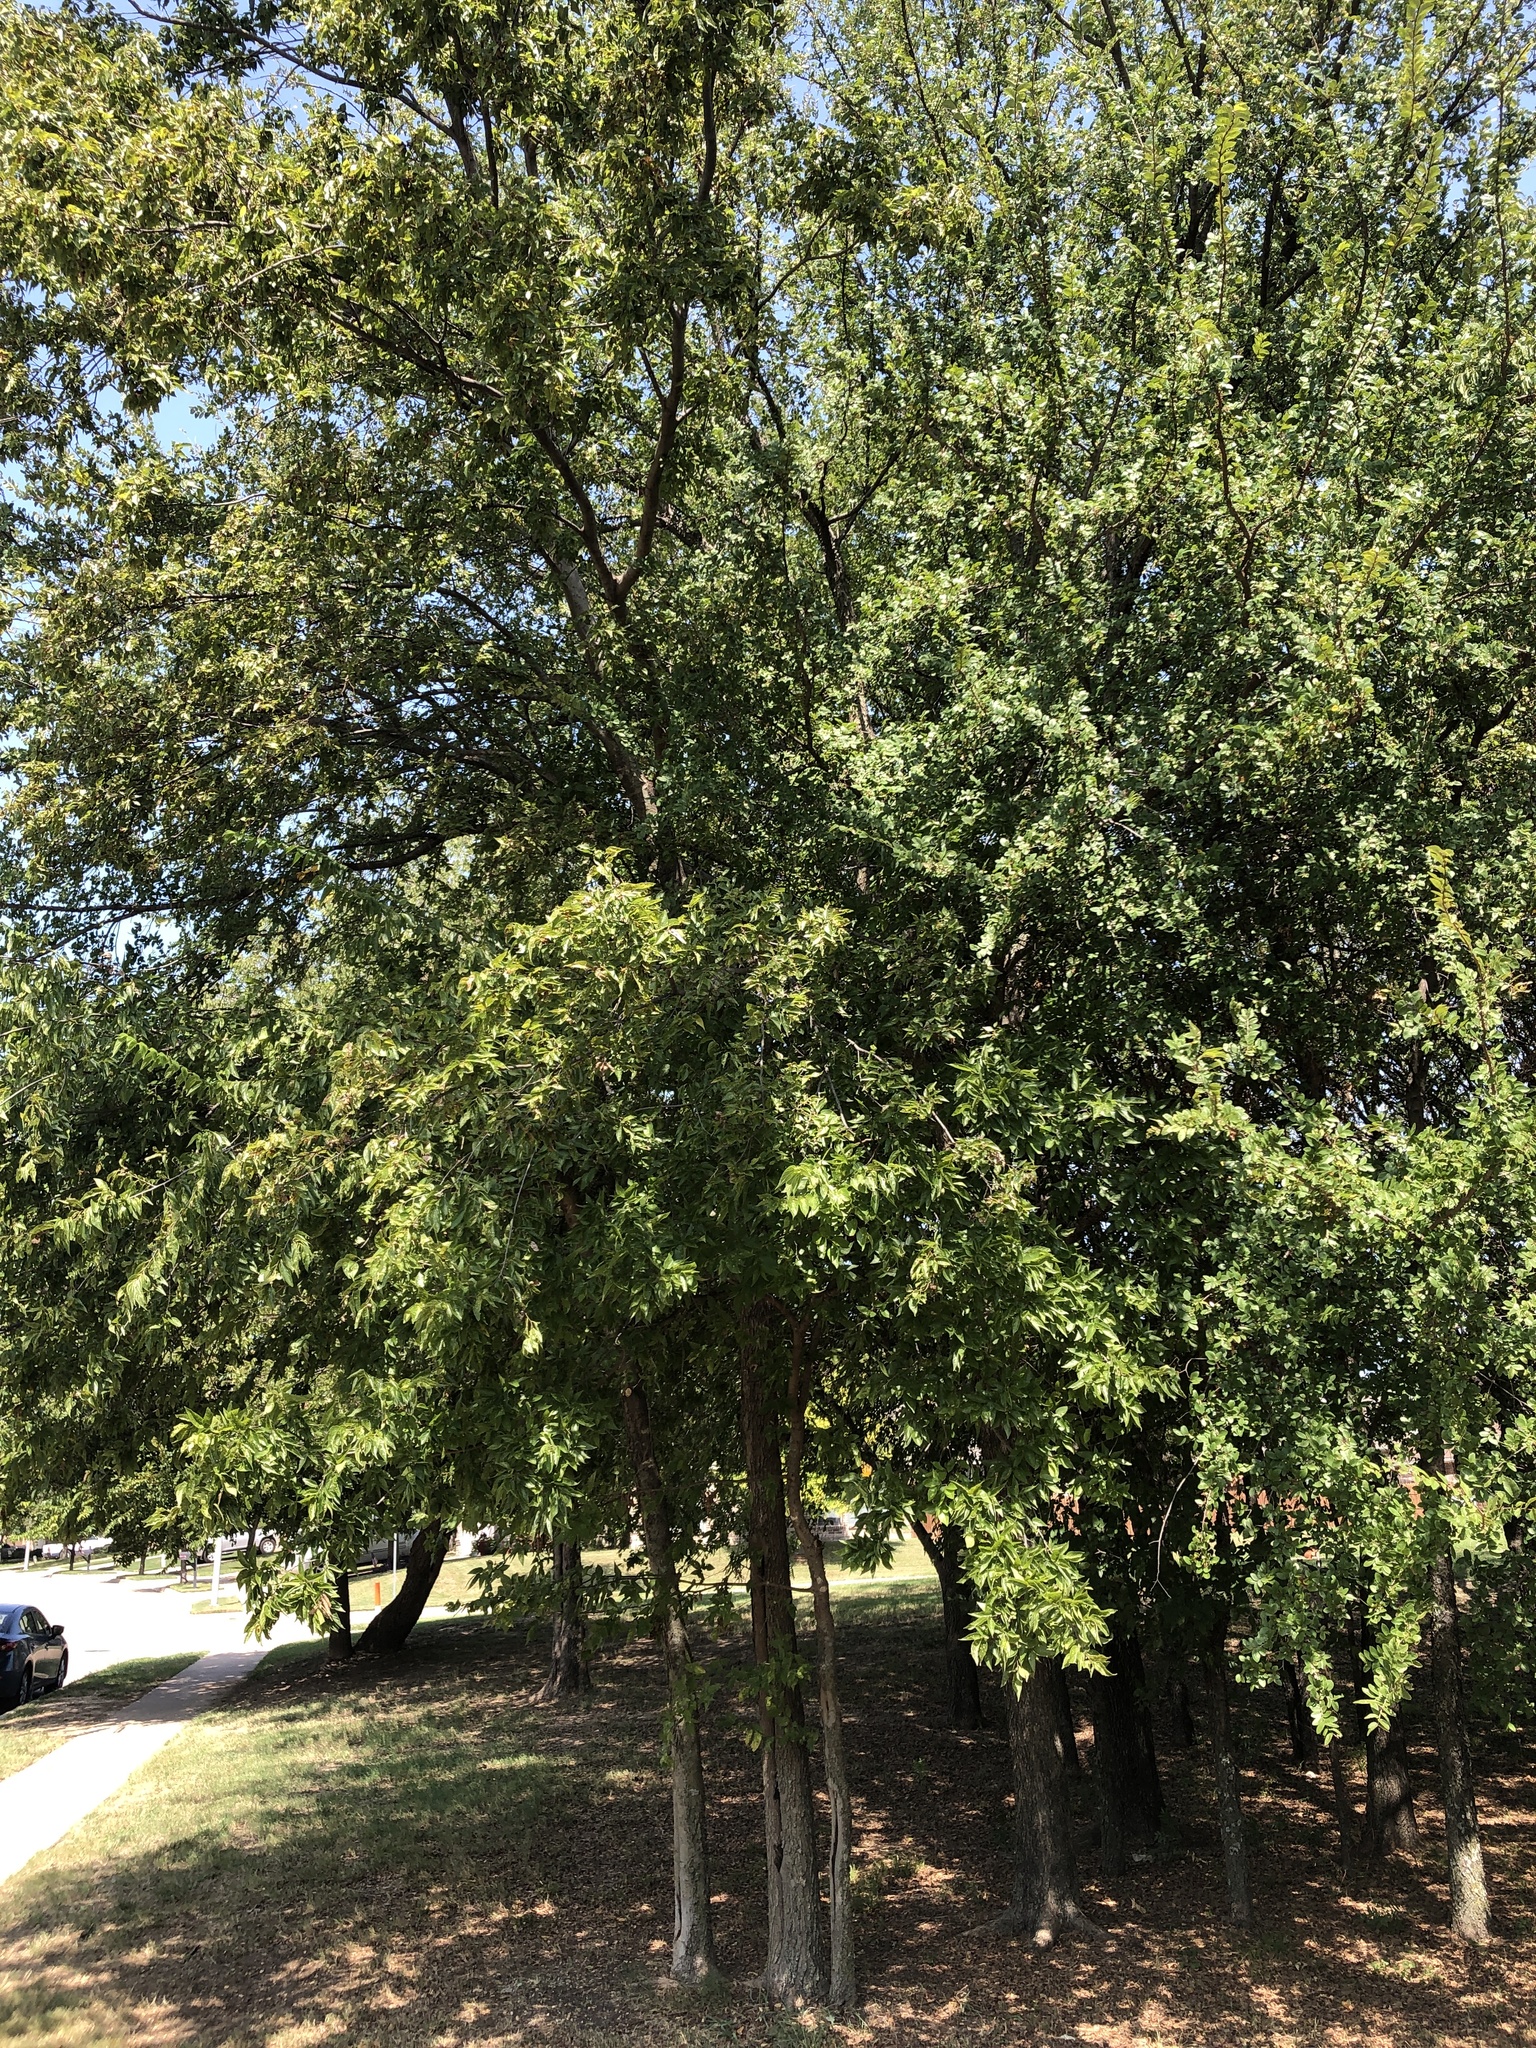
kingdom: Plantae
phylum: Tracheophyta
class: Magnoliopsida
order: Rosales
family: Cannabaceae
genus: Celtis
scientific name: Celtis laevigata
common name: Sugarberry
